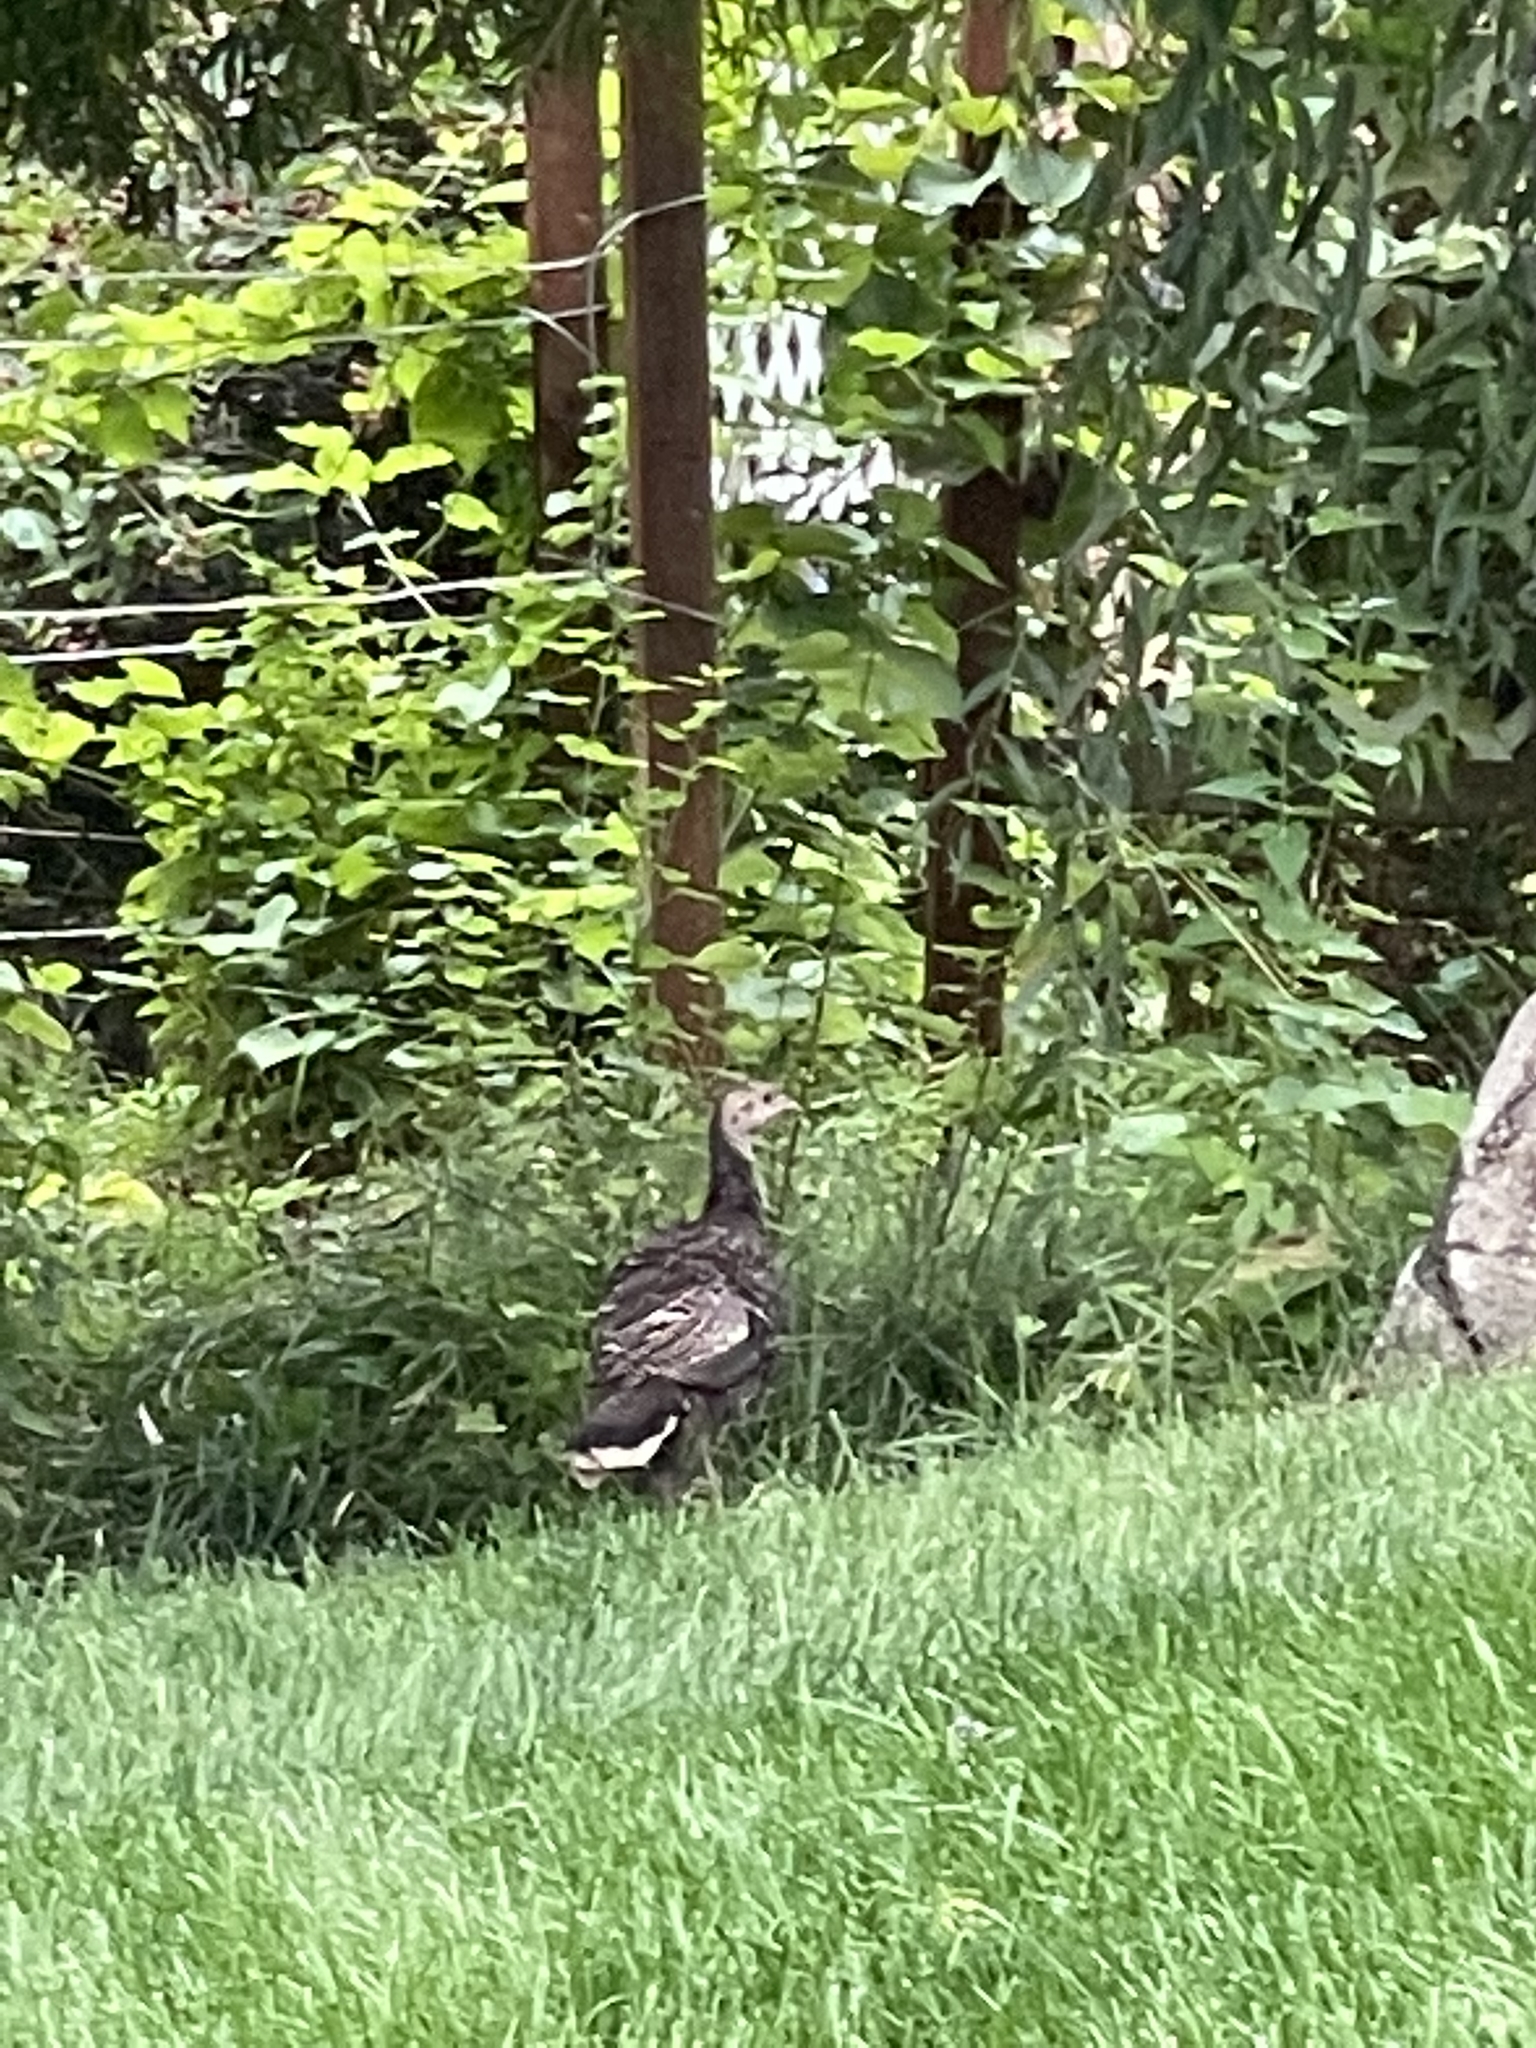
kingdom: Animalia
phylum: Chordata
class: Aves
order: Galliformes
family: Phasianidae
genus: Meleagris
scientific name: Meleagris gallopavo
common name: Wild turkey
